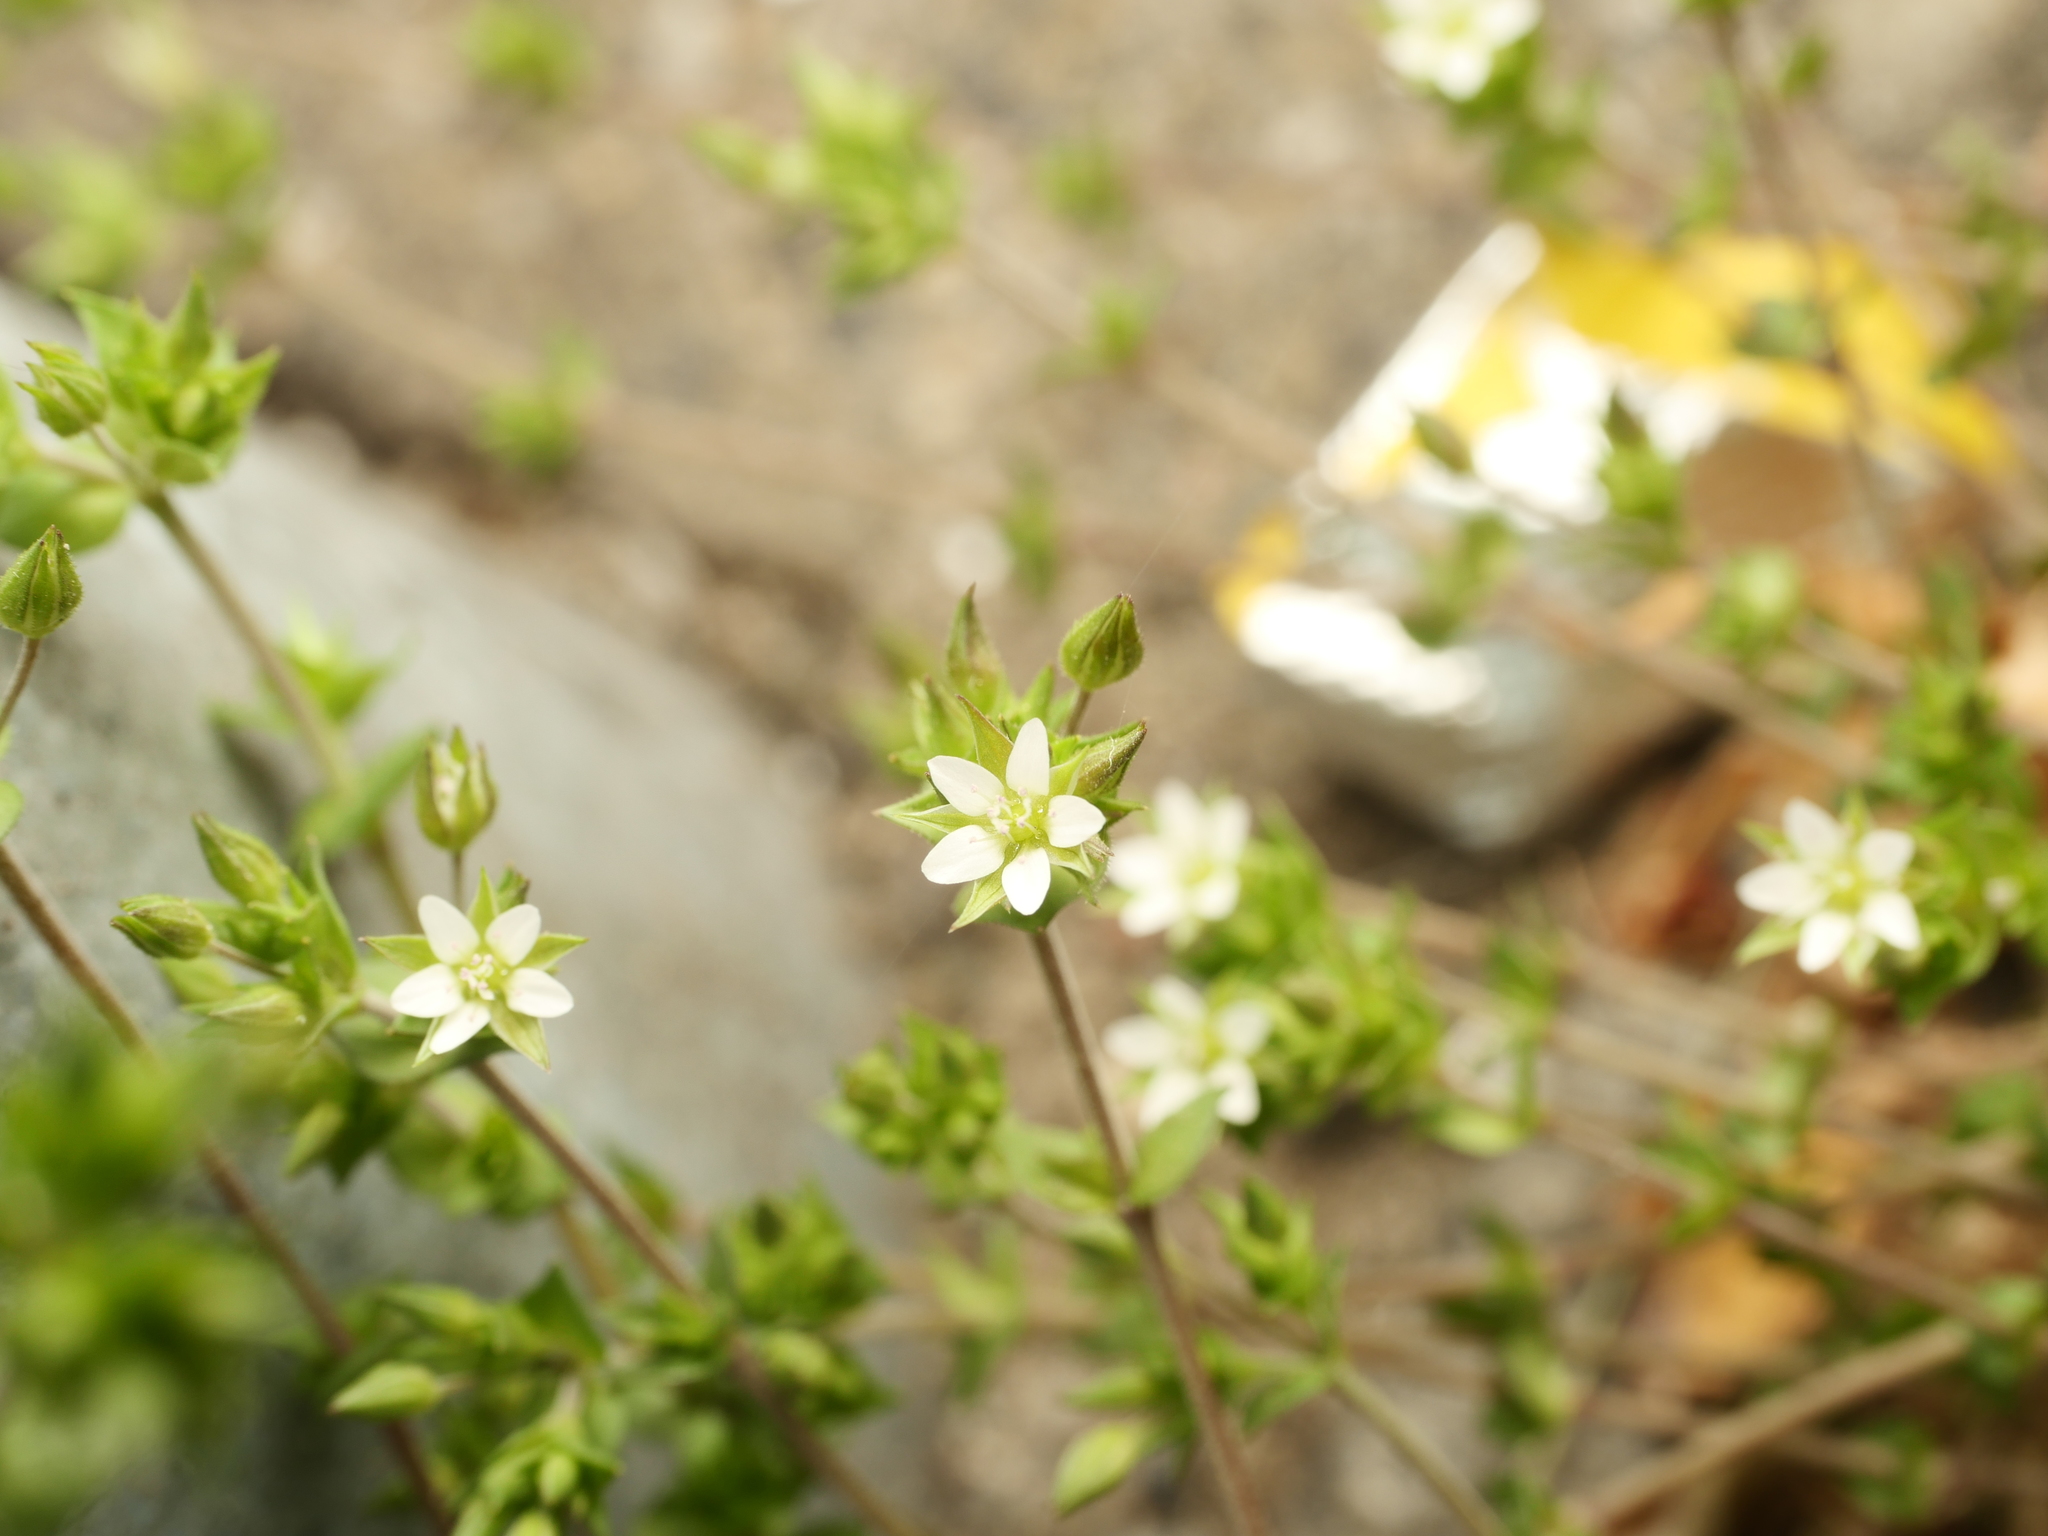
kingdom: Plantae
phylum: Tracheophyta
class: Magnoliopsida
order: Caryophyllales
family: Caryophyllaceae
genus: Arenaria
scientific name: Arenaria serpyllifolia
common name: Thyme-leaved sandwort
